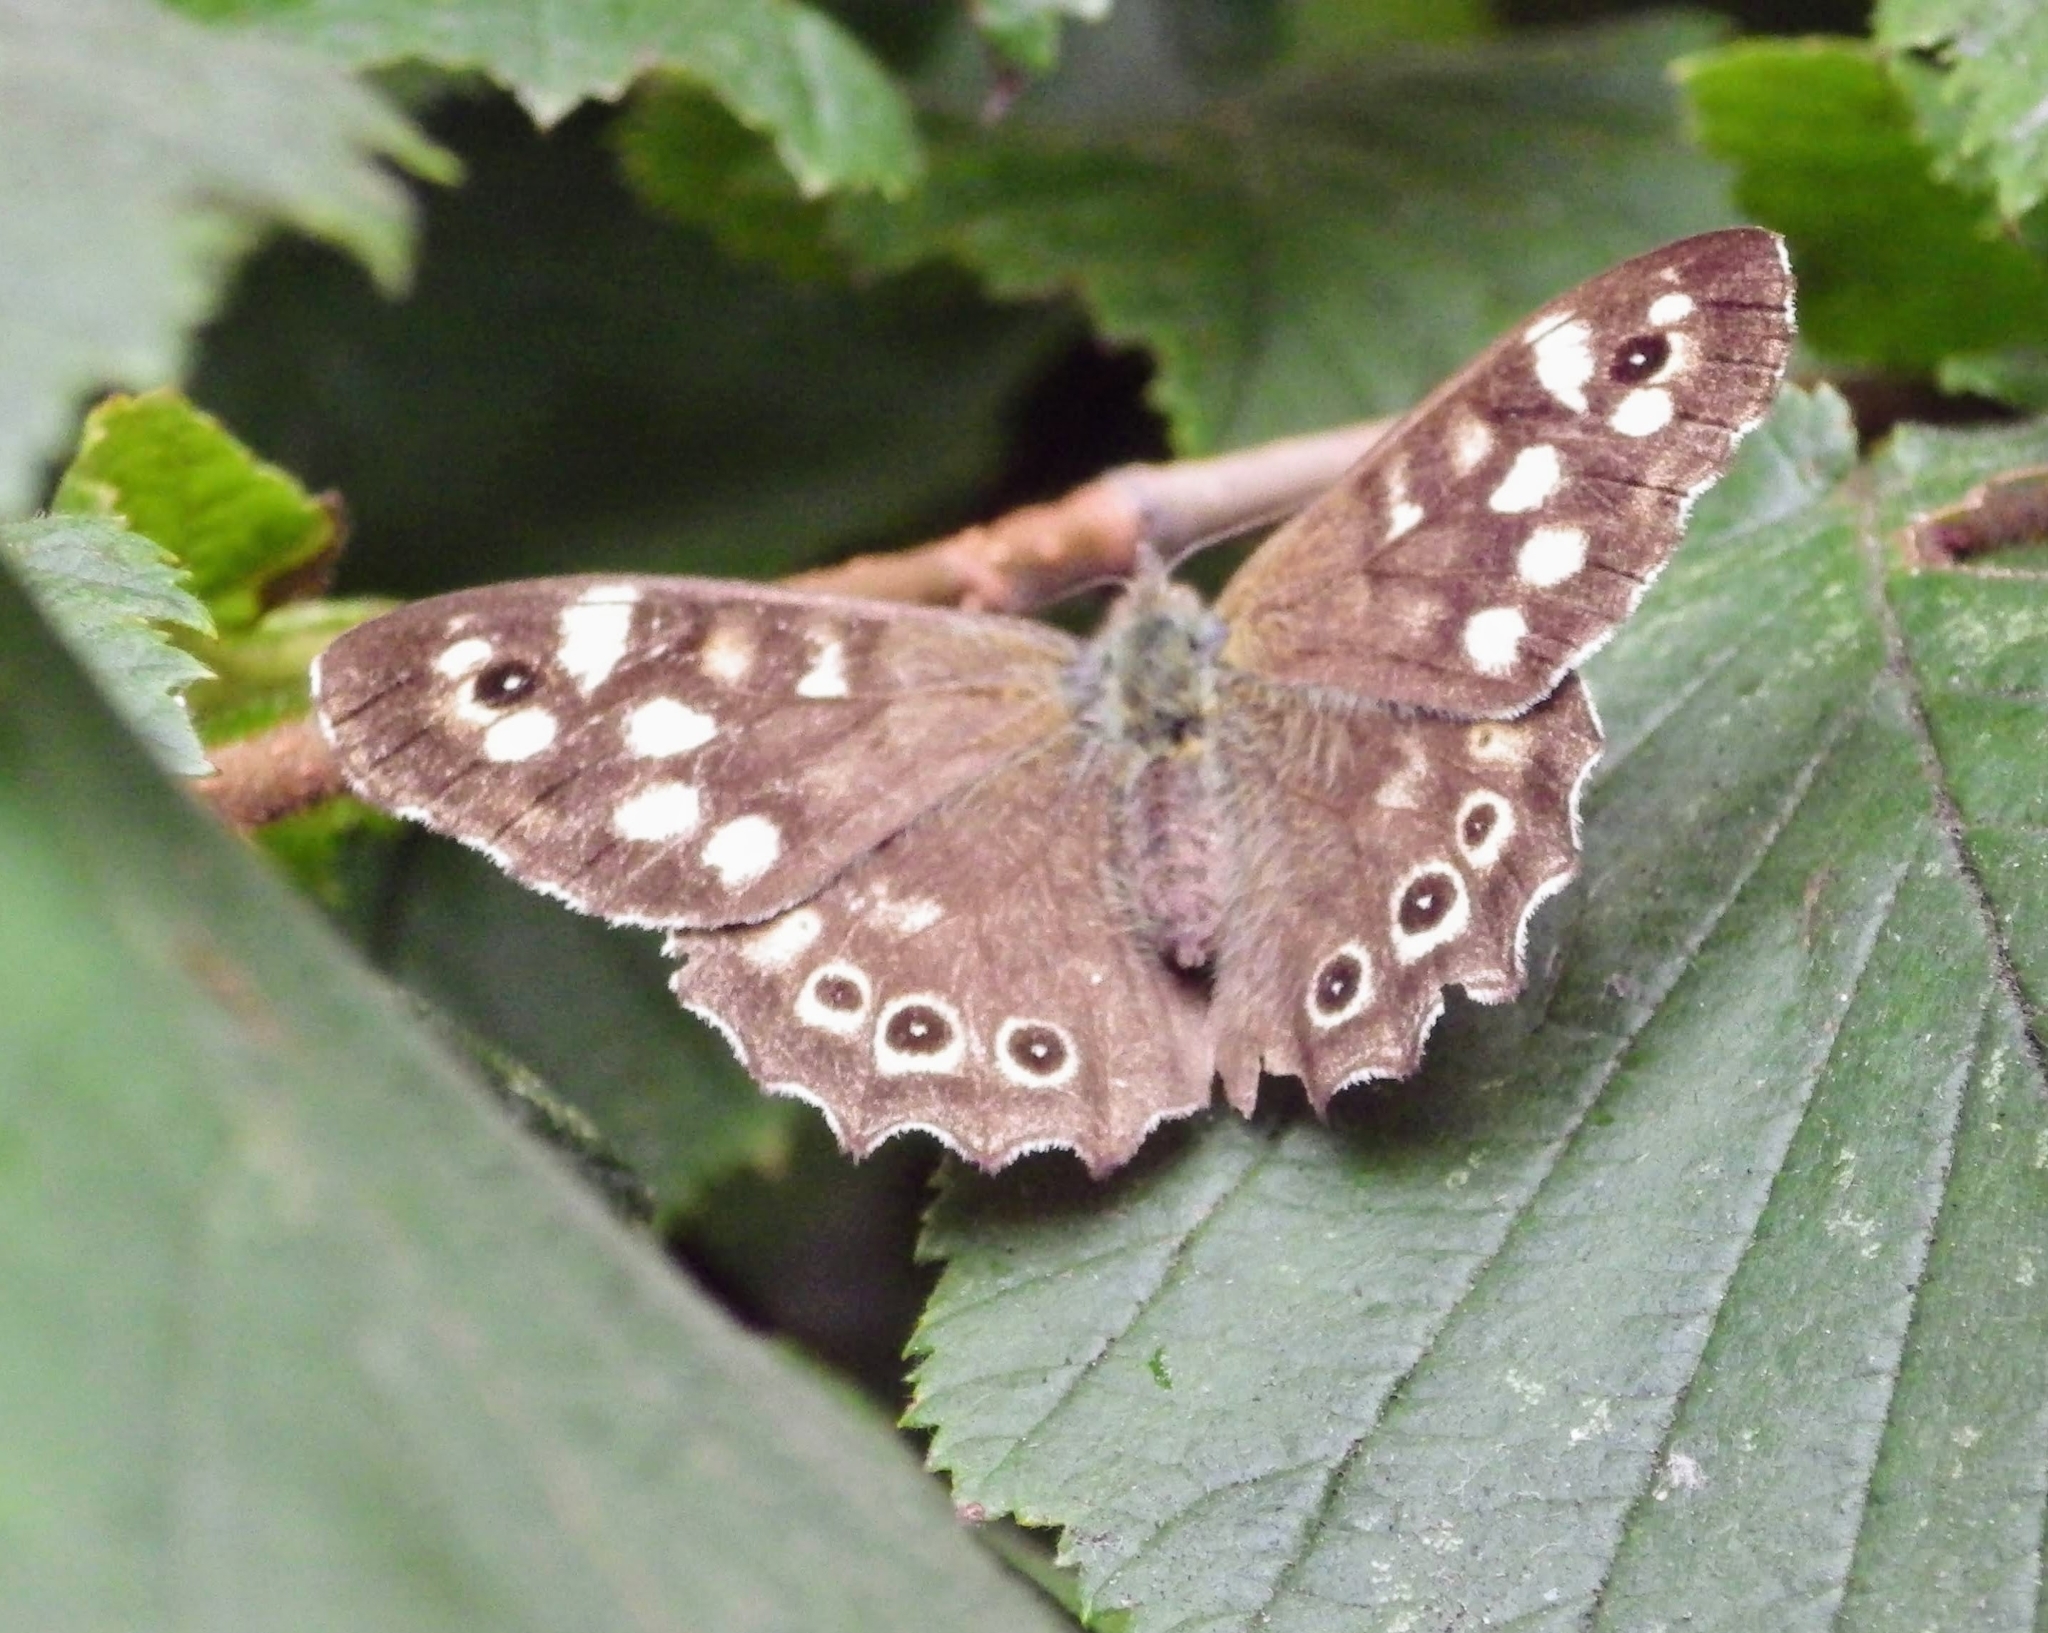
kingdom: Animalia
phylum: Arthropoda
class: Insecta
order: Lepidoptera
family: Nymphalidae
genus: Pararge
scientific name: Pararge aegeria
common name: Speckled wood
